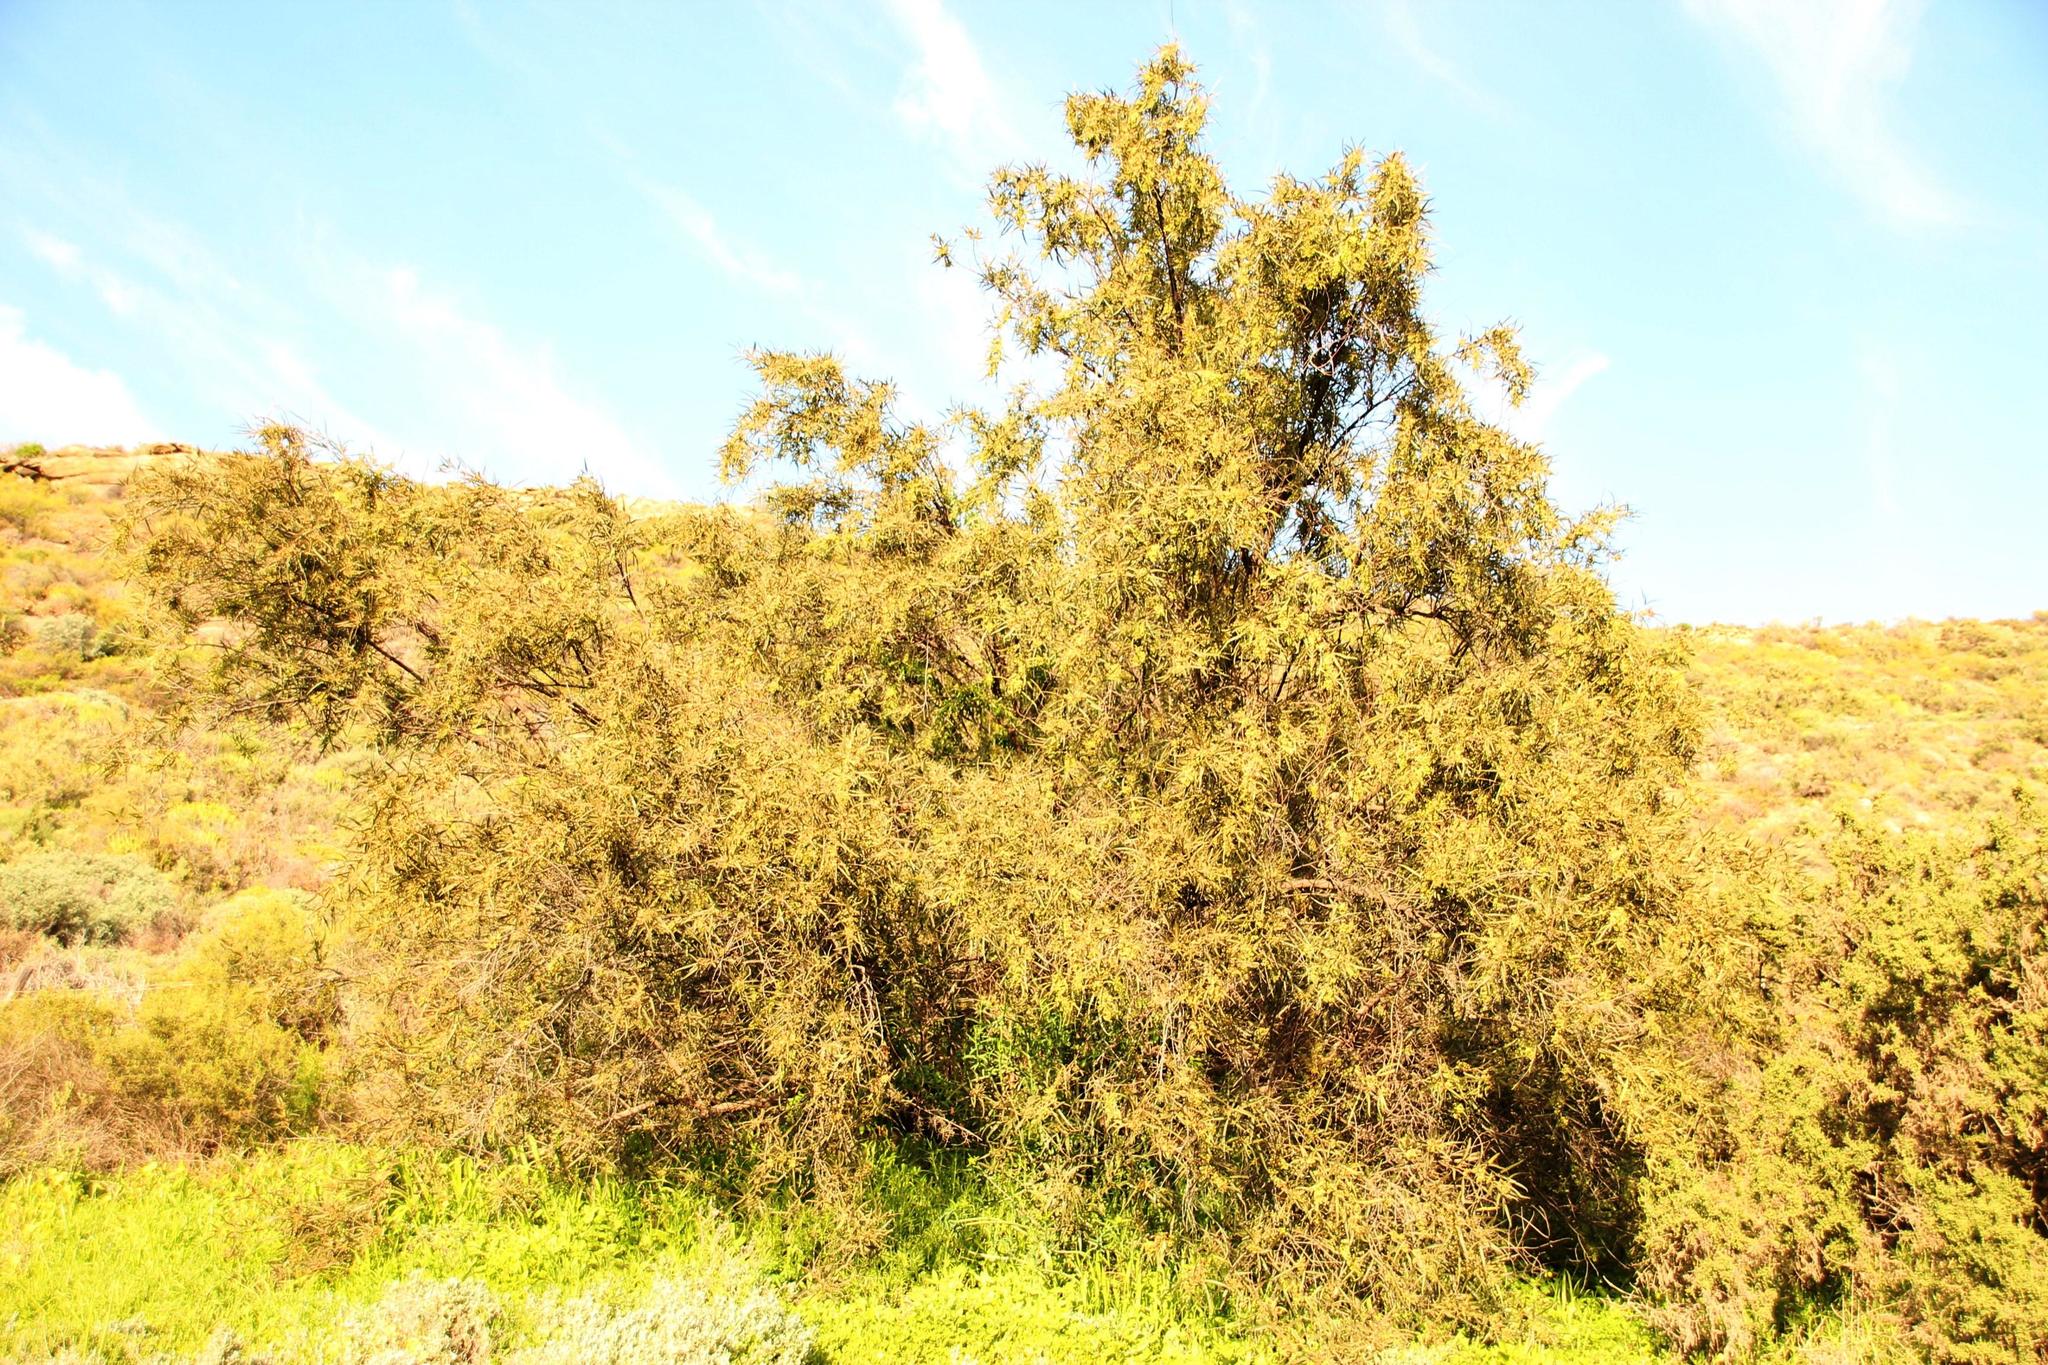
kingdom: Plantae
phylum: Tracheophyta
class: Magnoliopsida
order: Sapindales
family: Anacardiaceae
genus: Searsia
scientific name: Searsia lancea
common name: Cashew
